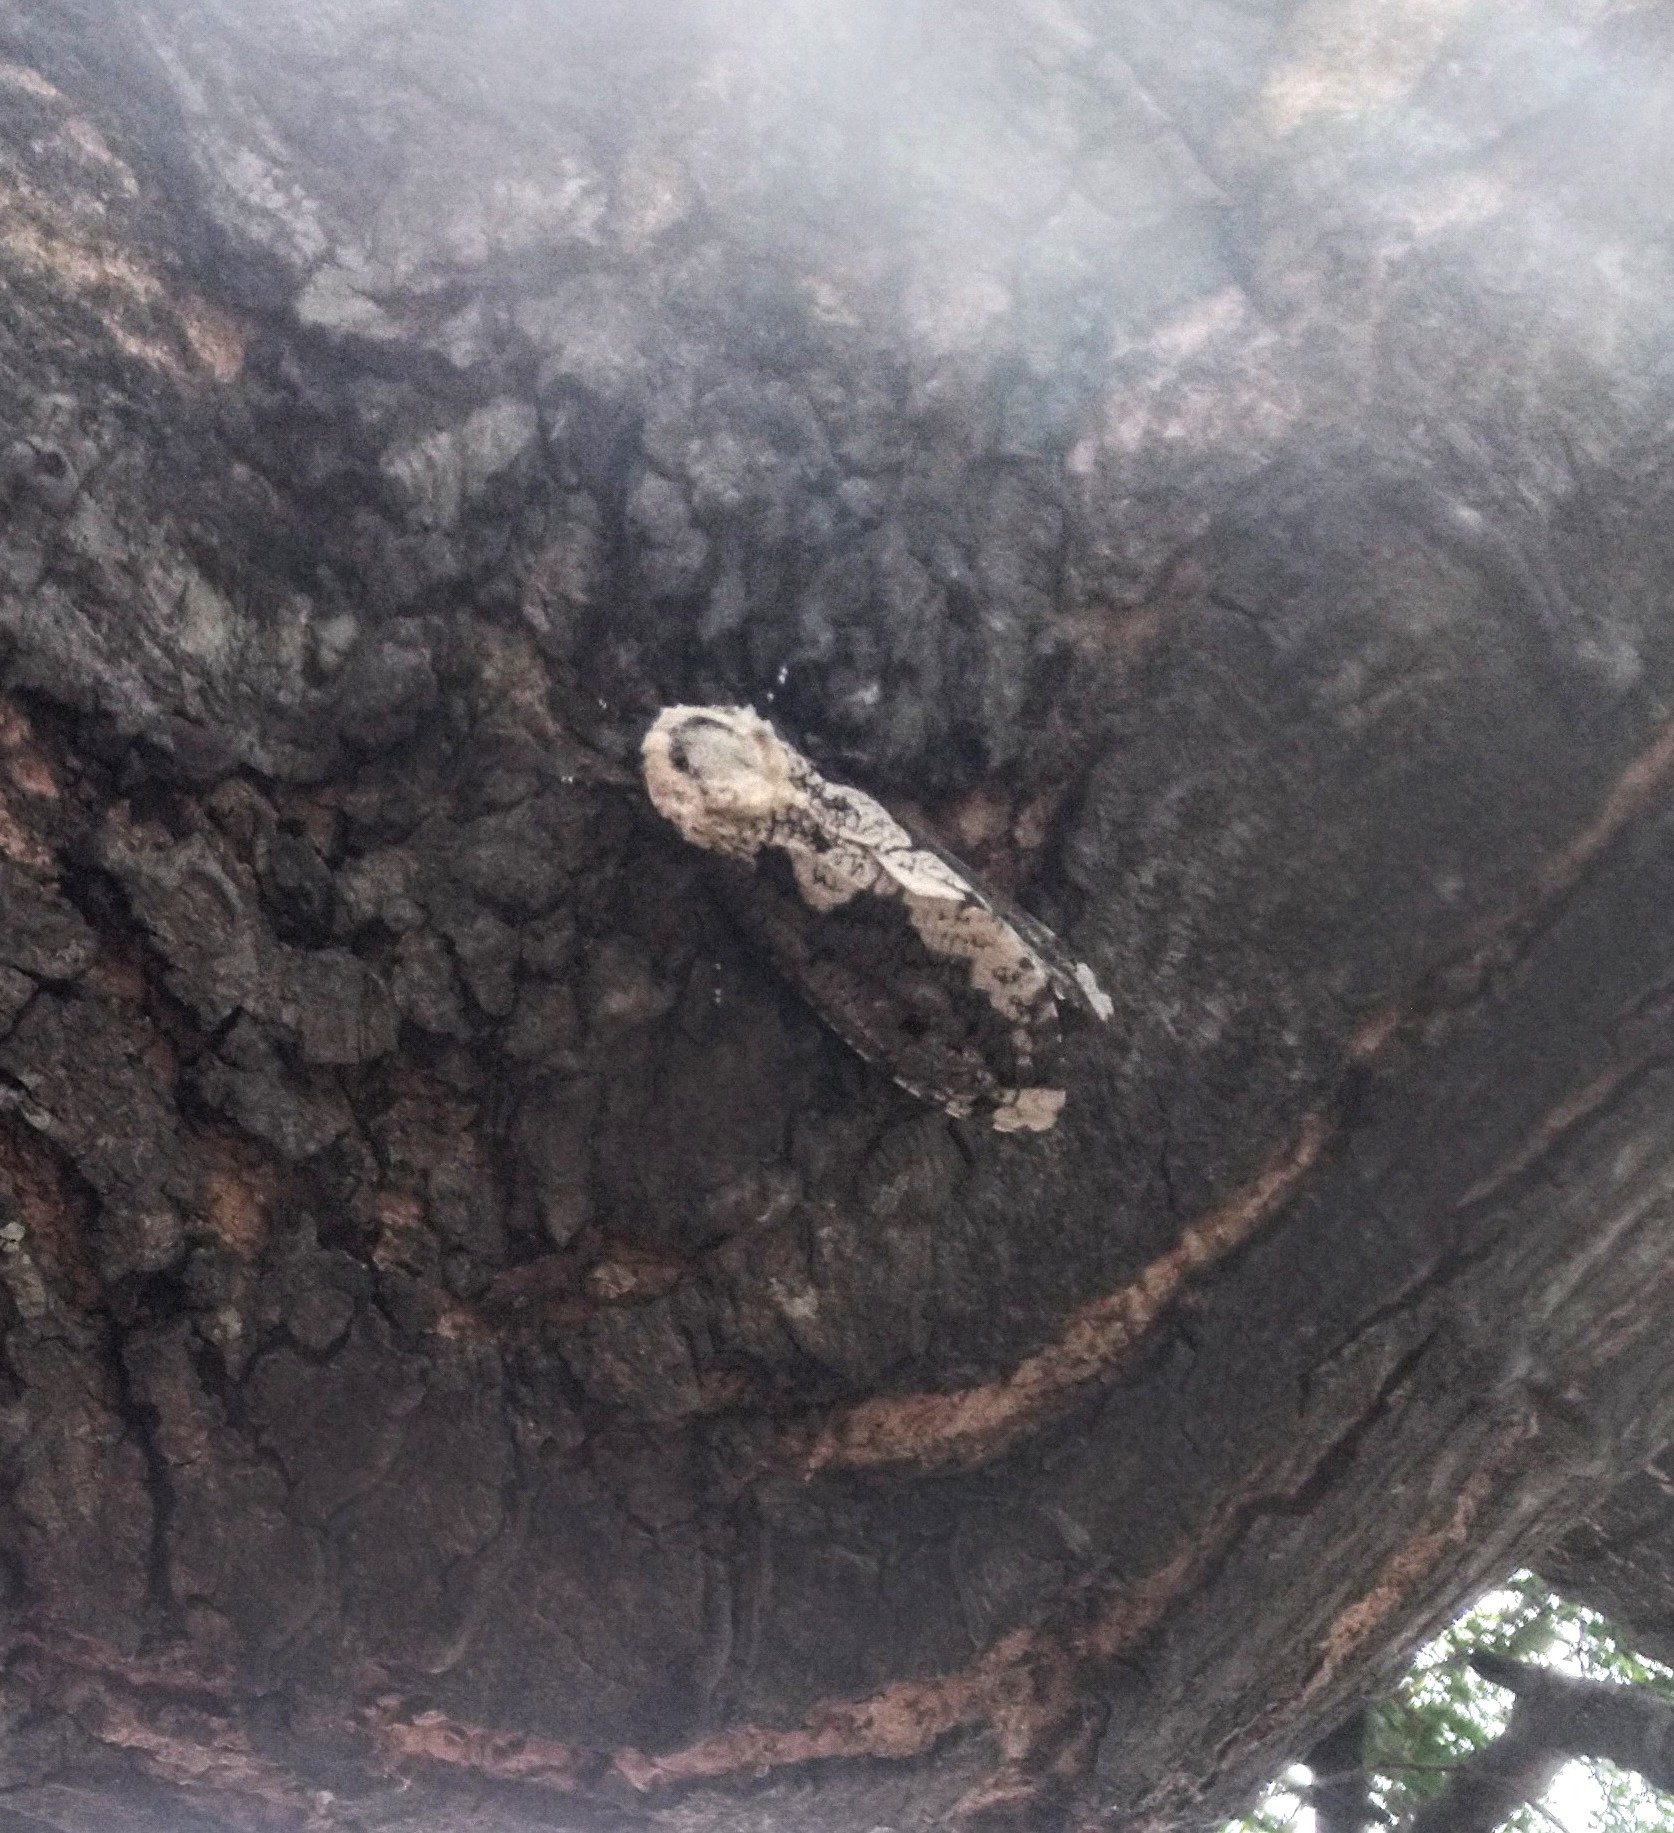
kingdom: Animalia
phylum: Arthropoda
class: Insecta
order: Lepidoptera
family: Cossidae
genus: Xyleutes
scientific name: Xyleutes persona
